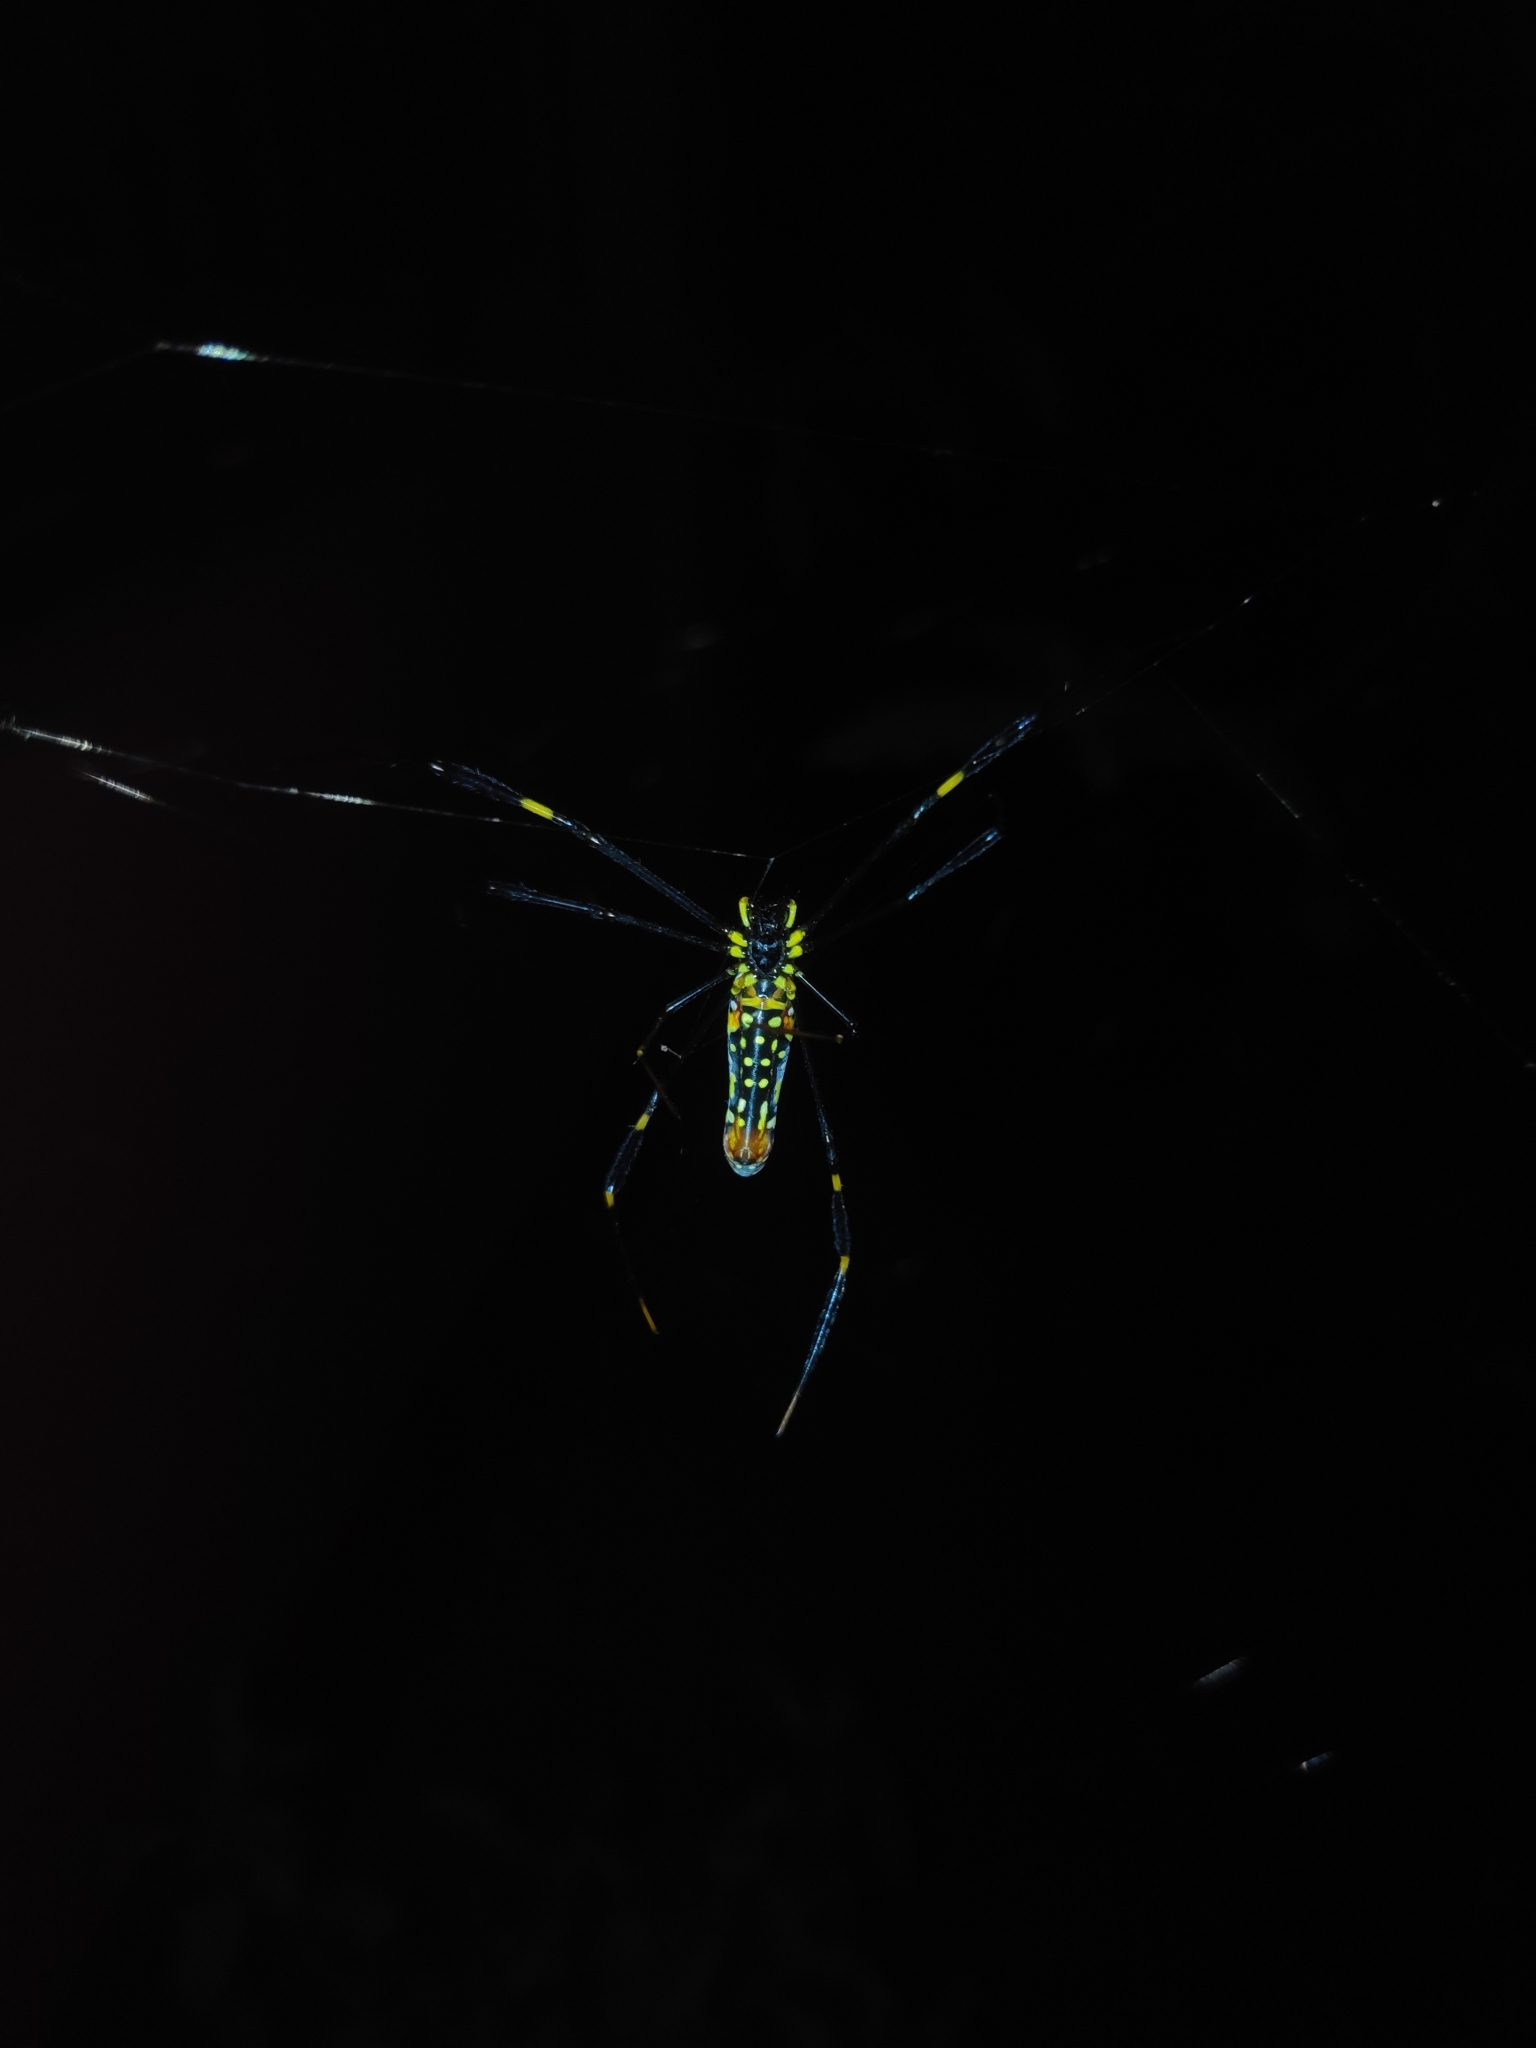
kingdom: Animalia
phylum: Arthropoda
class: Arachnida
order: Araneae
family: Araneidae
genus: Nephila
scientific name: Nephila pilipes
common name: Giant golden orb weaver
